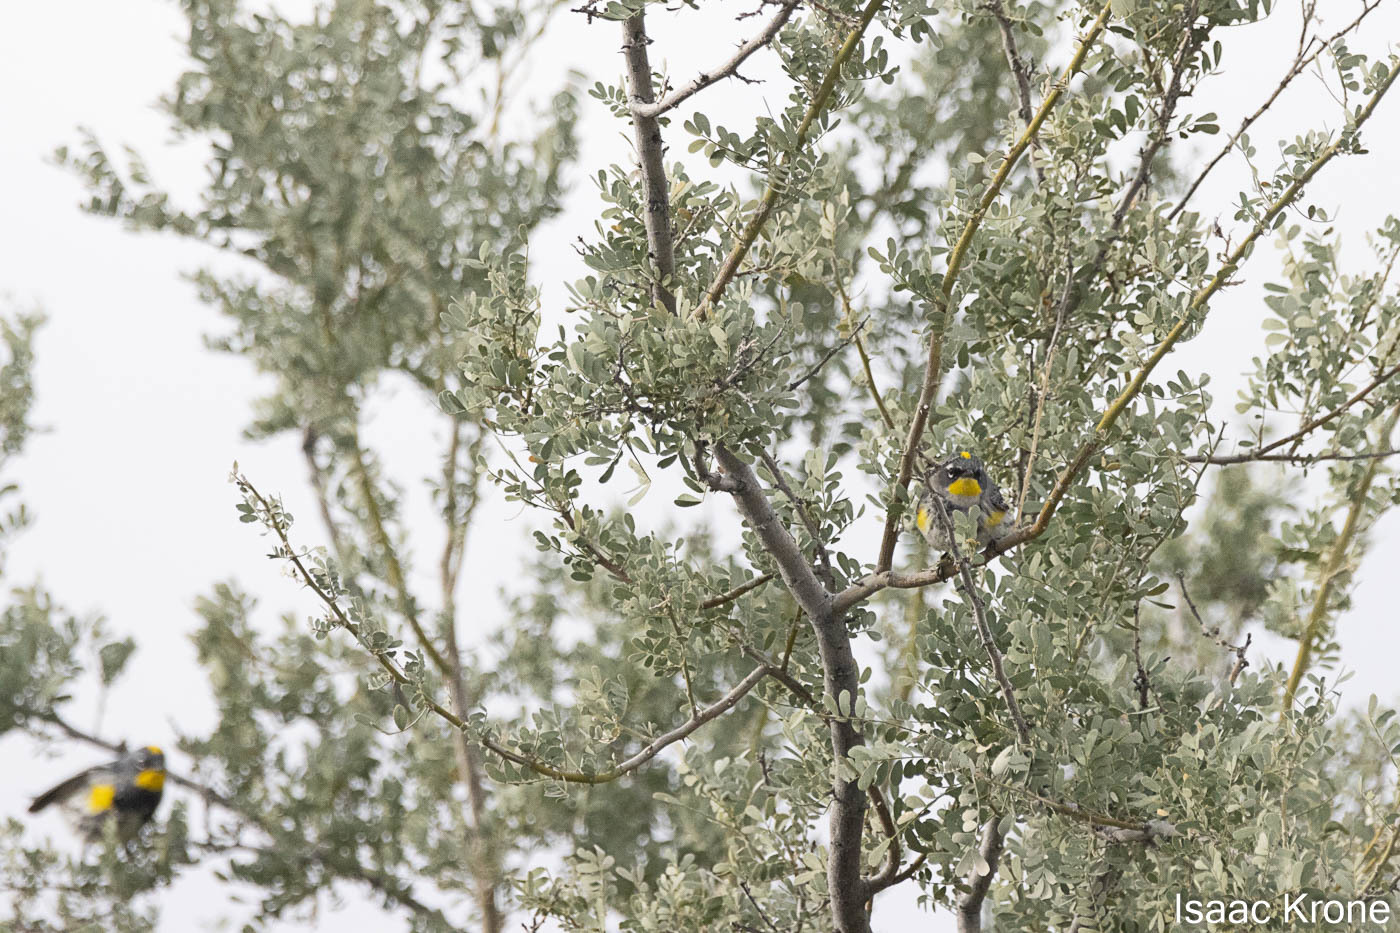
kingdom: Animalia
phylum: Chordata
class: Aves
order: Passeriformes
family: Parulidae
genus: Setophaga
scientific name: Setophaga coronata
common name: Myrtle warbler
